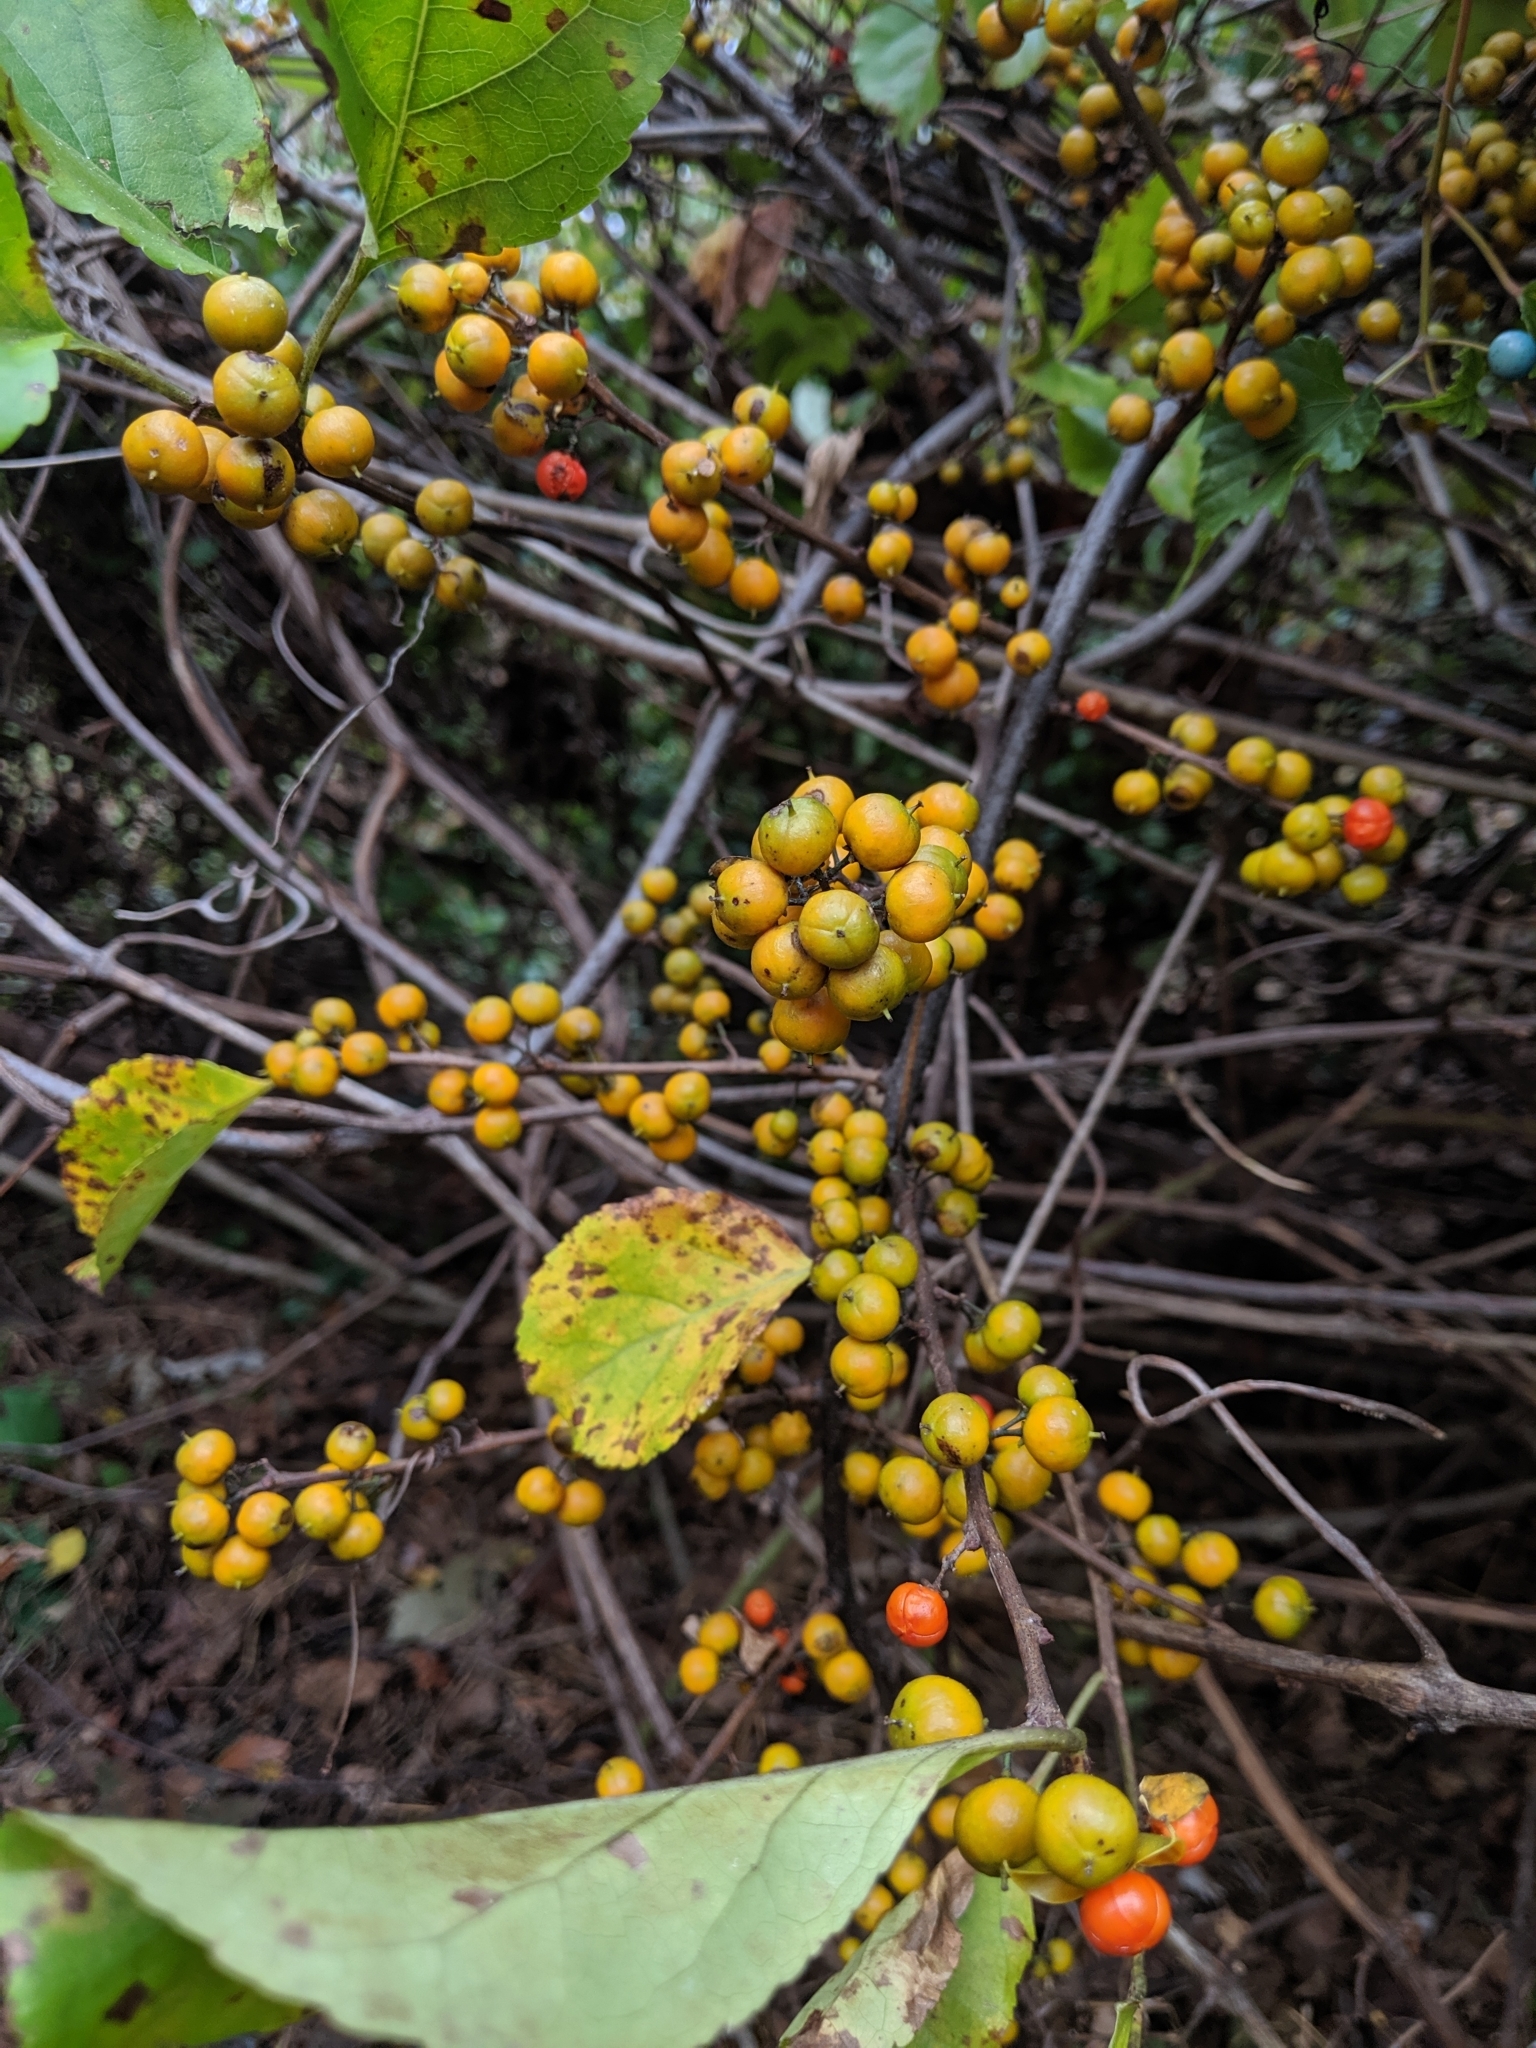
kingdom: Plantae
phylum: Tracheophyta
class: Magnoliopsida
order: Celastrales
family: Celastraceae
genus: Celastrus
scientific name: Celastrus orbiculatus
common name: Oriental bittersweet
